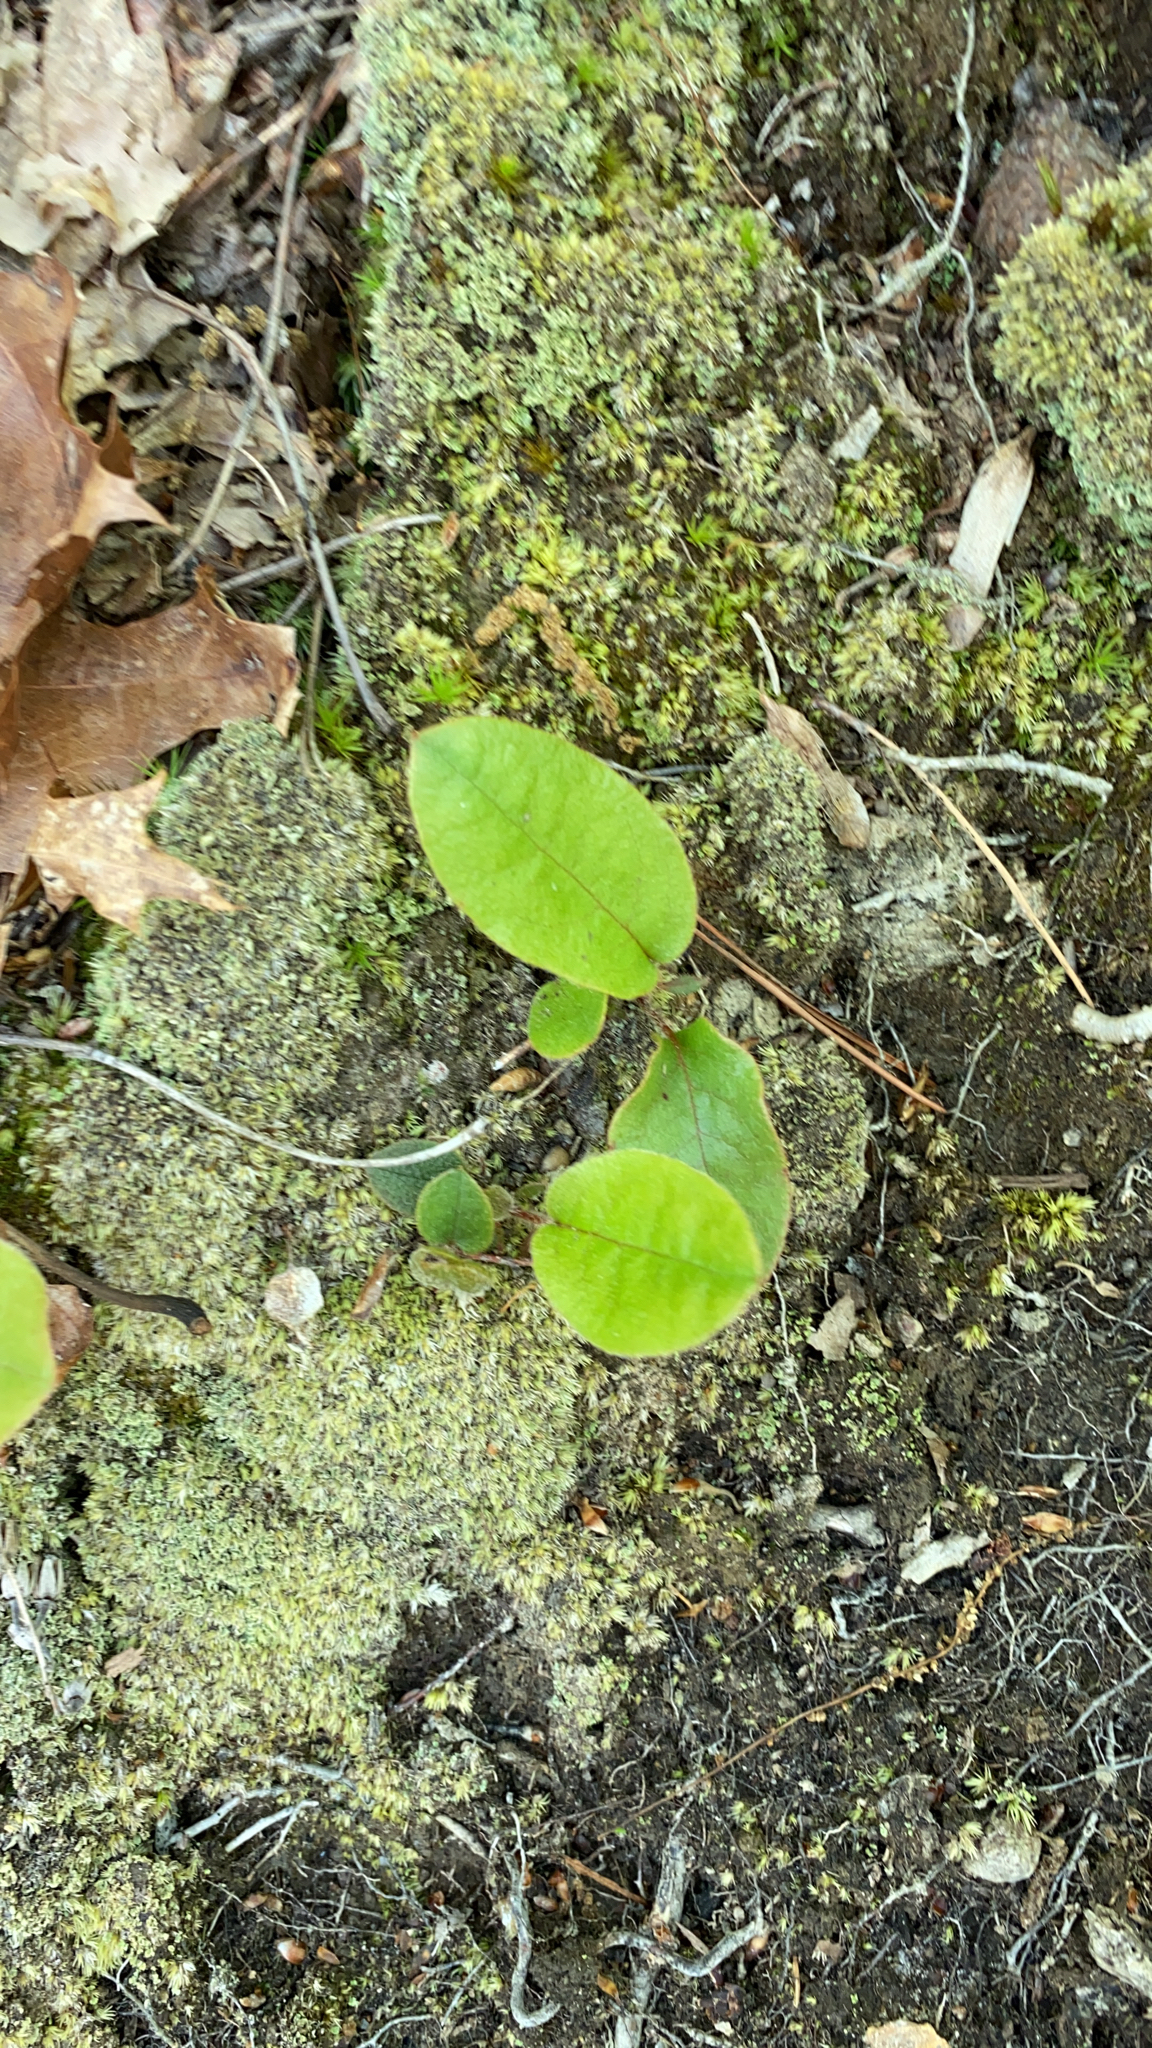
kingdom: Plantae
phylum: Tracheophyta
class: Magnoliopsida
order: Ericales
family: Ericaceae
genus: Epigaea
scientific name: Epigaea repens
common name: Gravelroot
